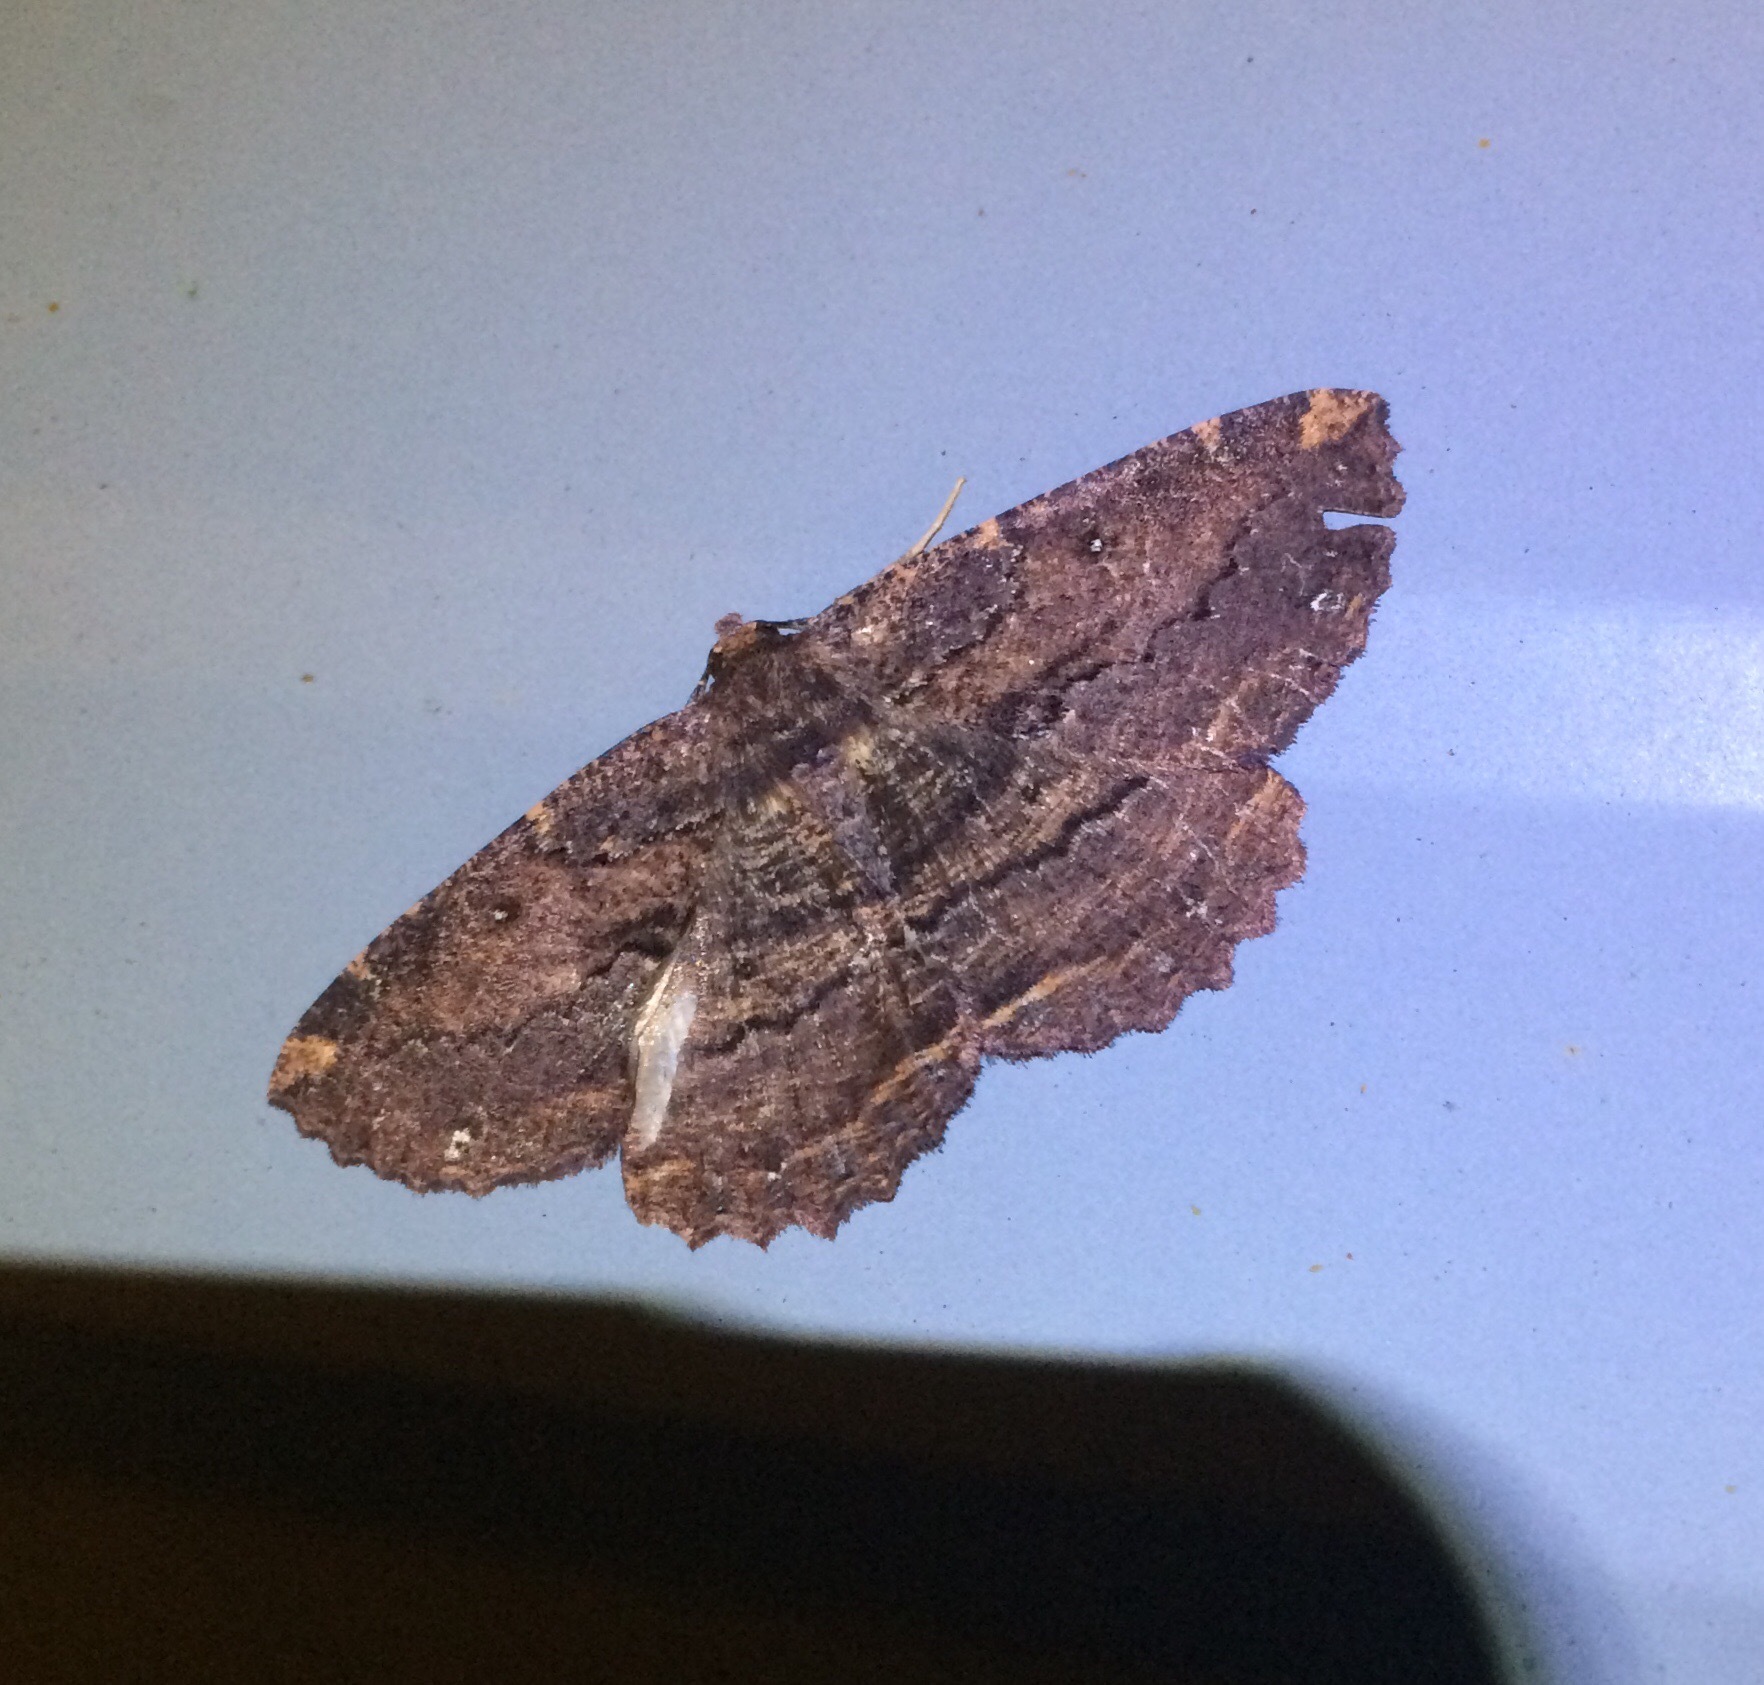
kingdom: Animalia
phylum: Arthropoda
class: Insecta
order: Lepidoptera
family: Geometridae
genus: Gellonia
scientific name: Gellonia dejectaria
